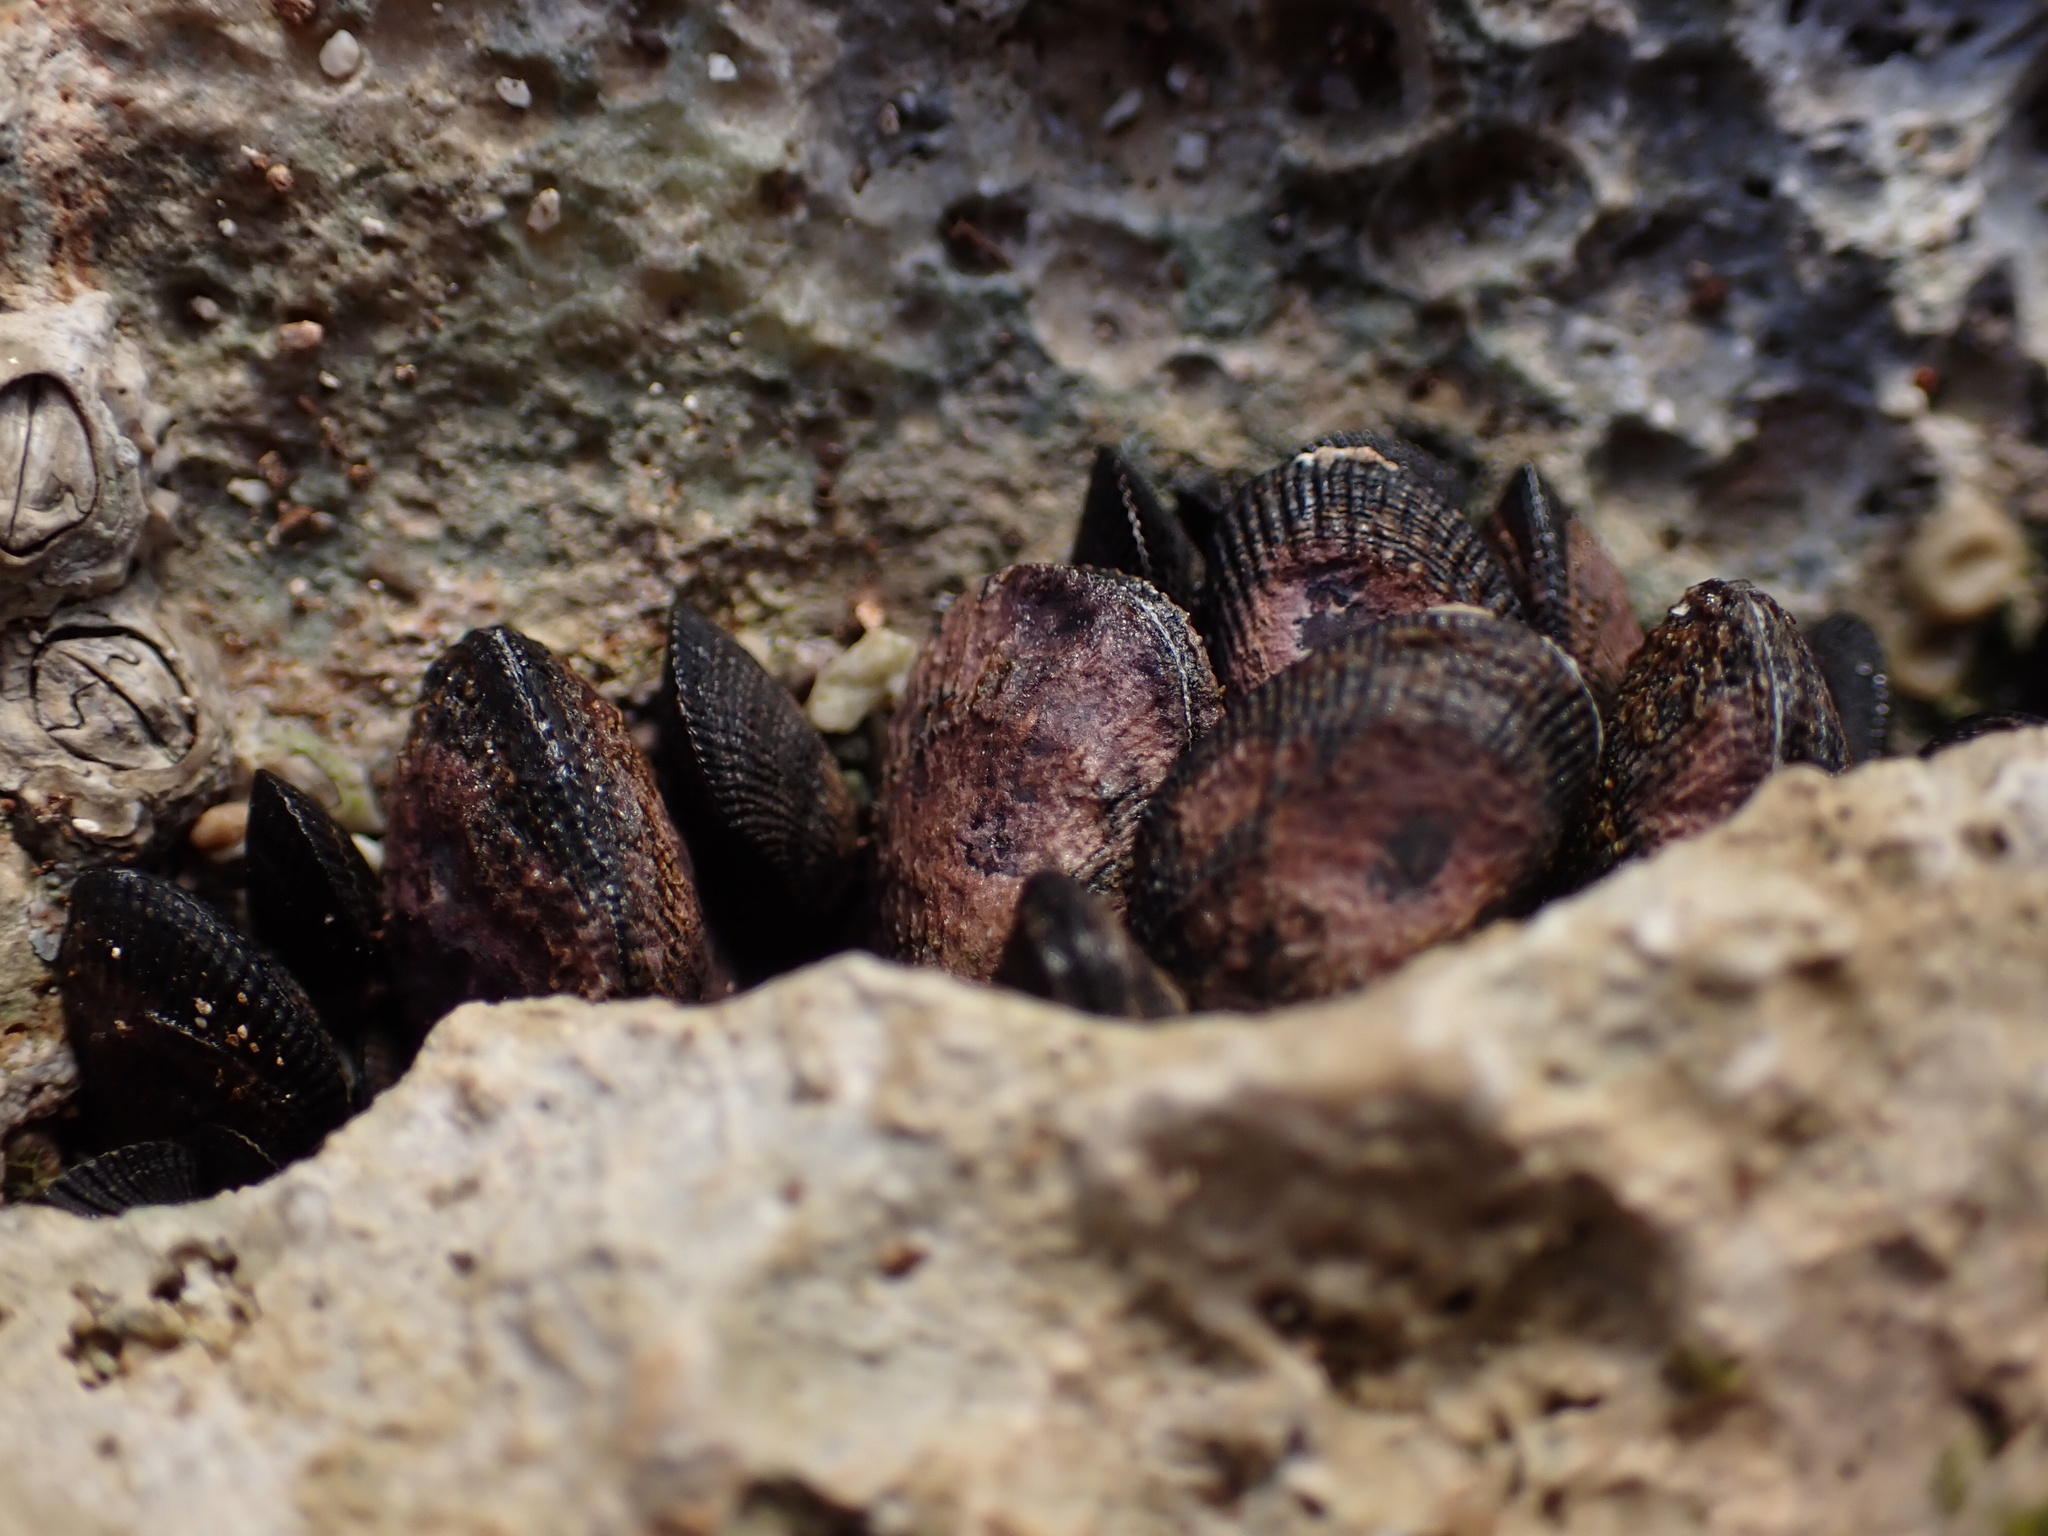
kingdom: Animalia
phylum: Mollusca
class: Bivalvia
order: Mytilida
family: Mytilidae
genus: Brachidontes
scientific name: Brachidontes domingensis
